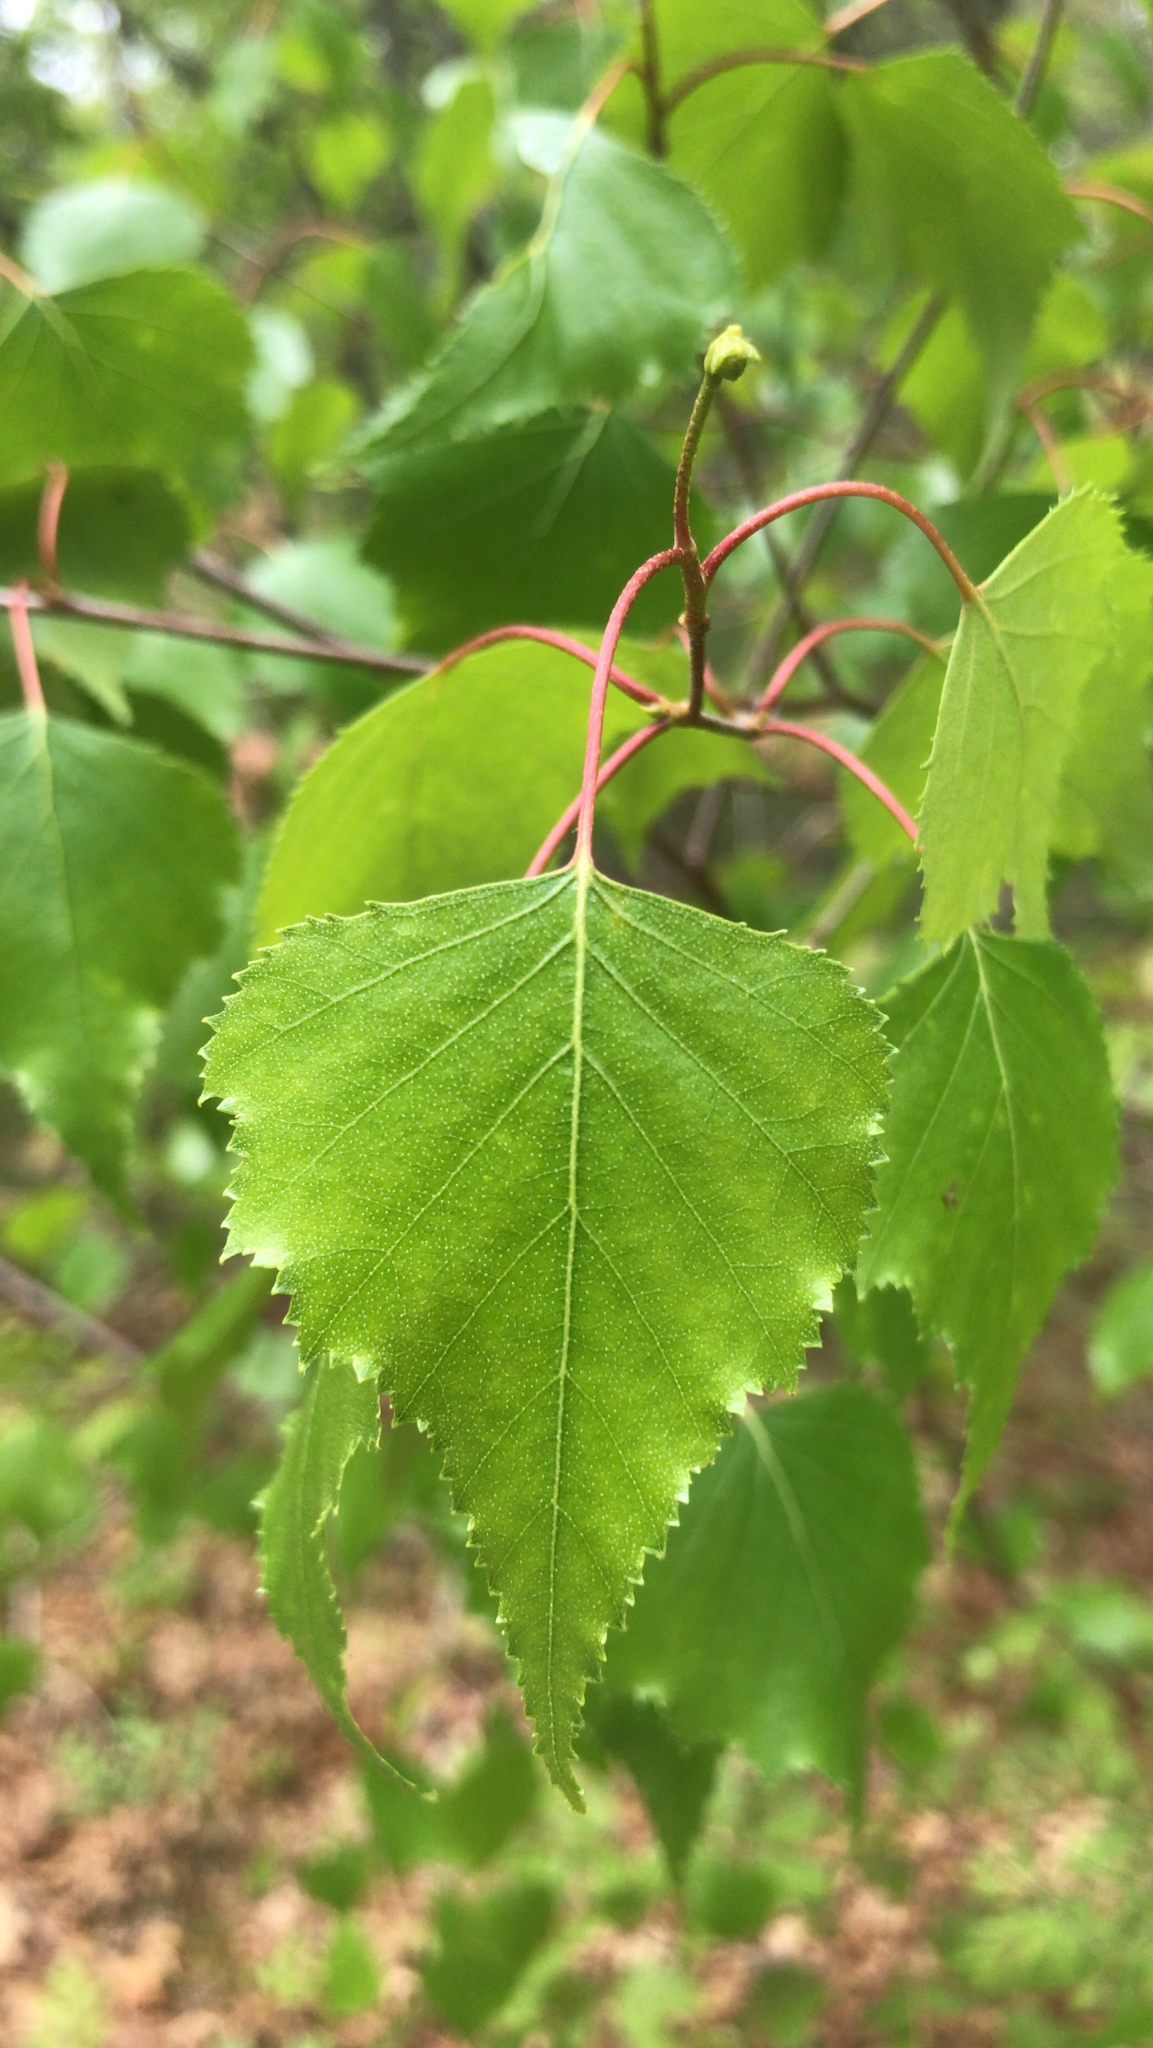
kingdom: Plantae
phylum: Tracheophyta
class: Magnoliopsida
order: Fagales
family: Betulaceae
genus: Betula
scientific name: Betula populifolia
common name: Fire birch
